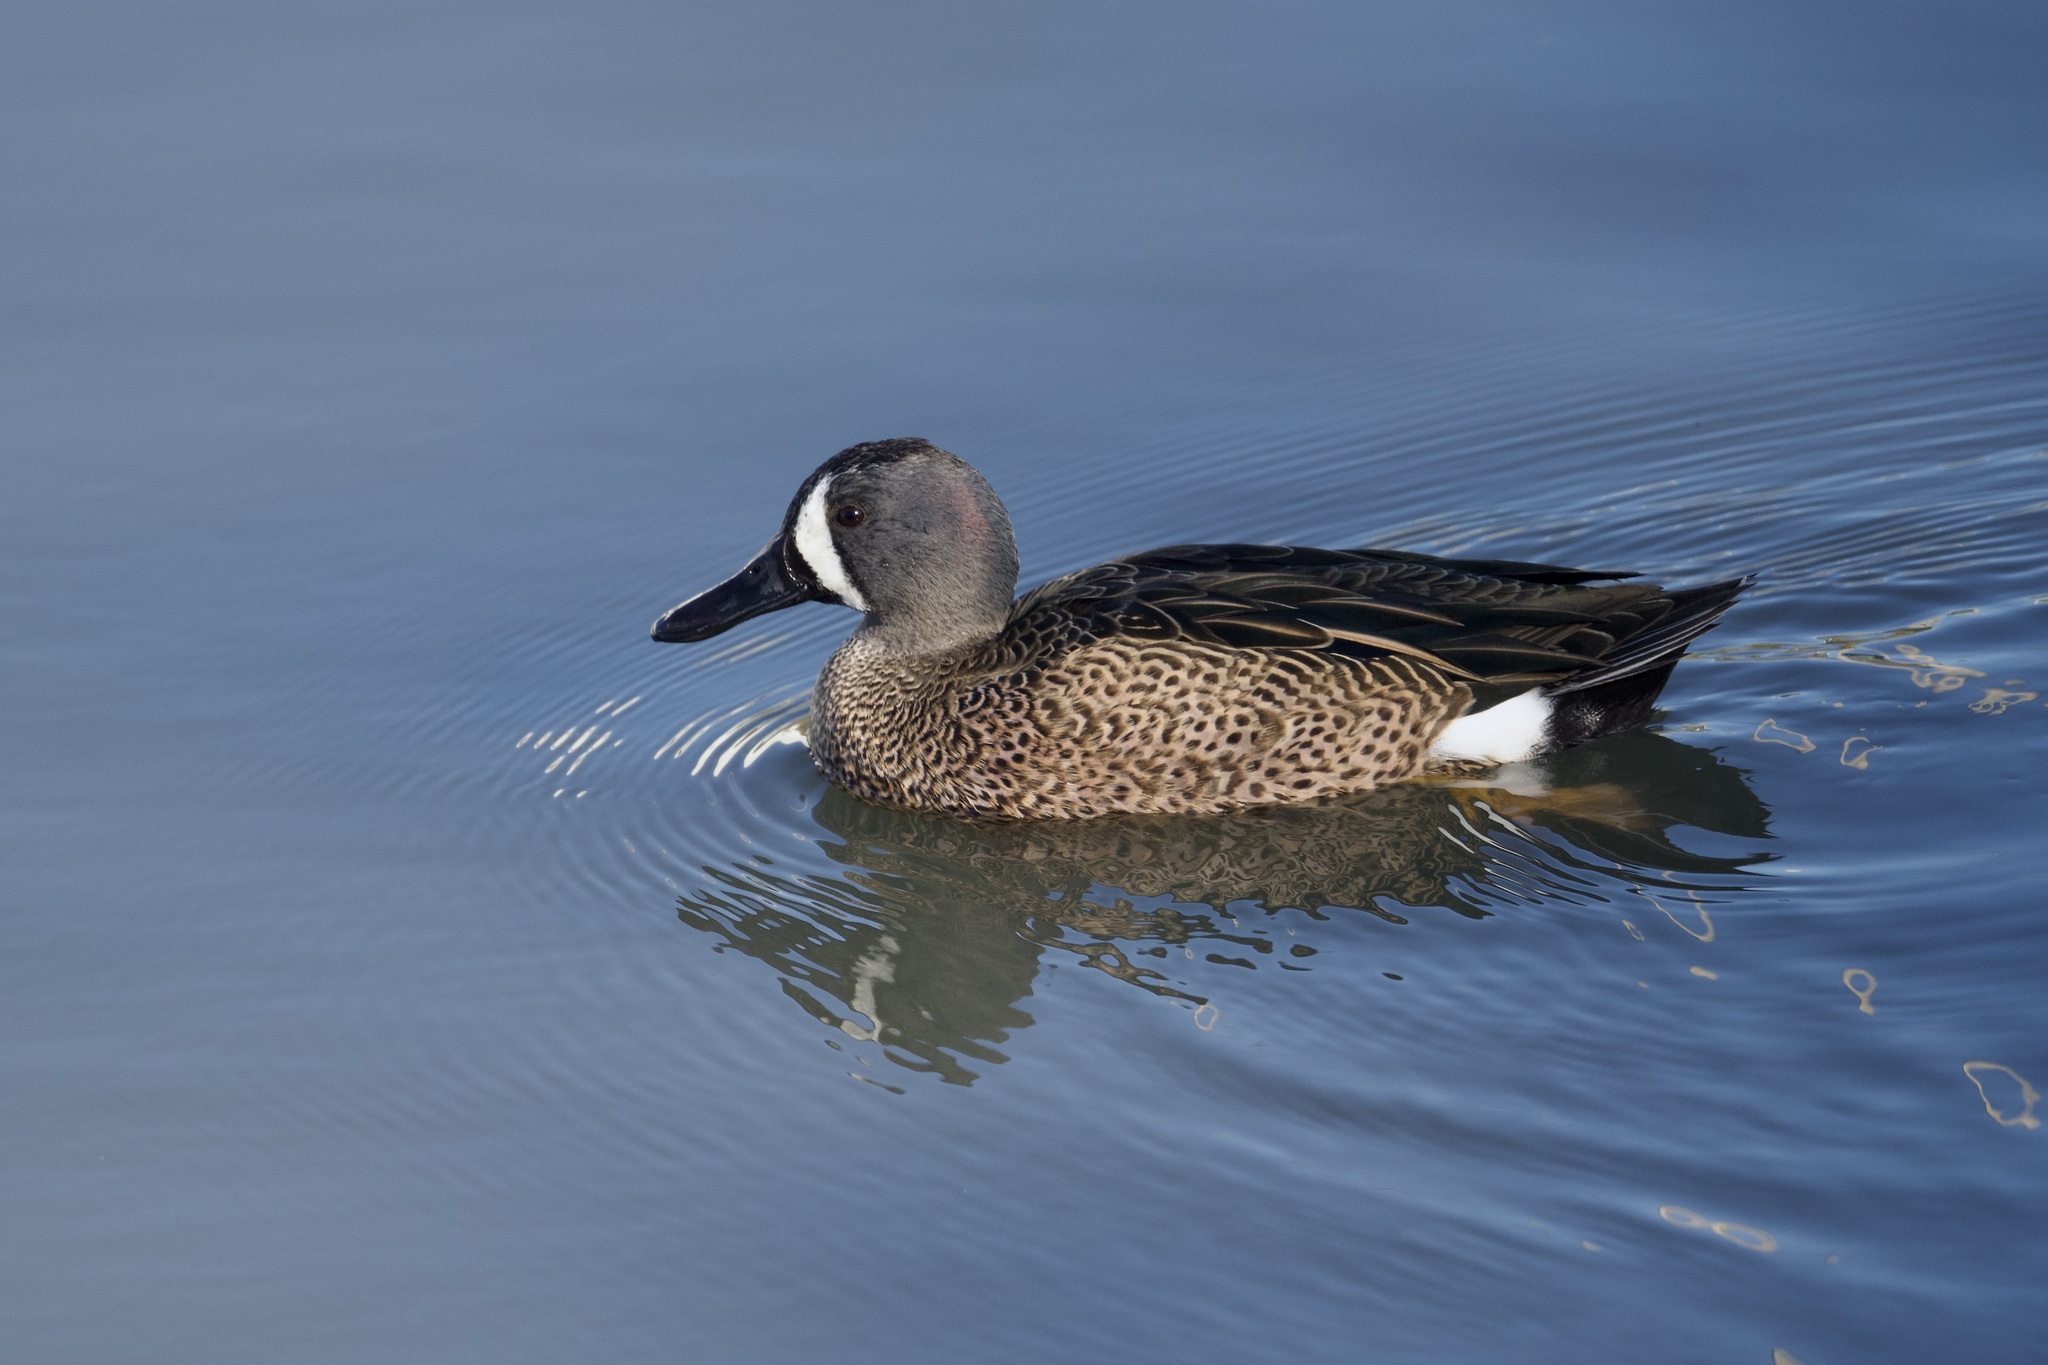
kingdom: Animalia
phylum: Chordata
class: Aves
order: Anseriformes
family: Anatidae
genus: Spatula
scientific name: Spatula discors
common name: Blue-winged teal
